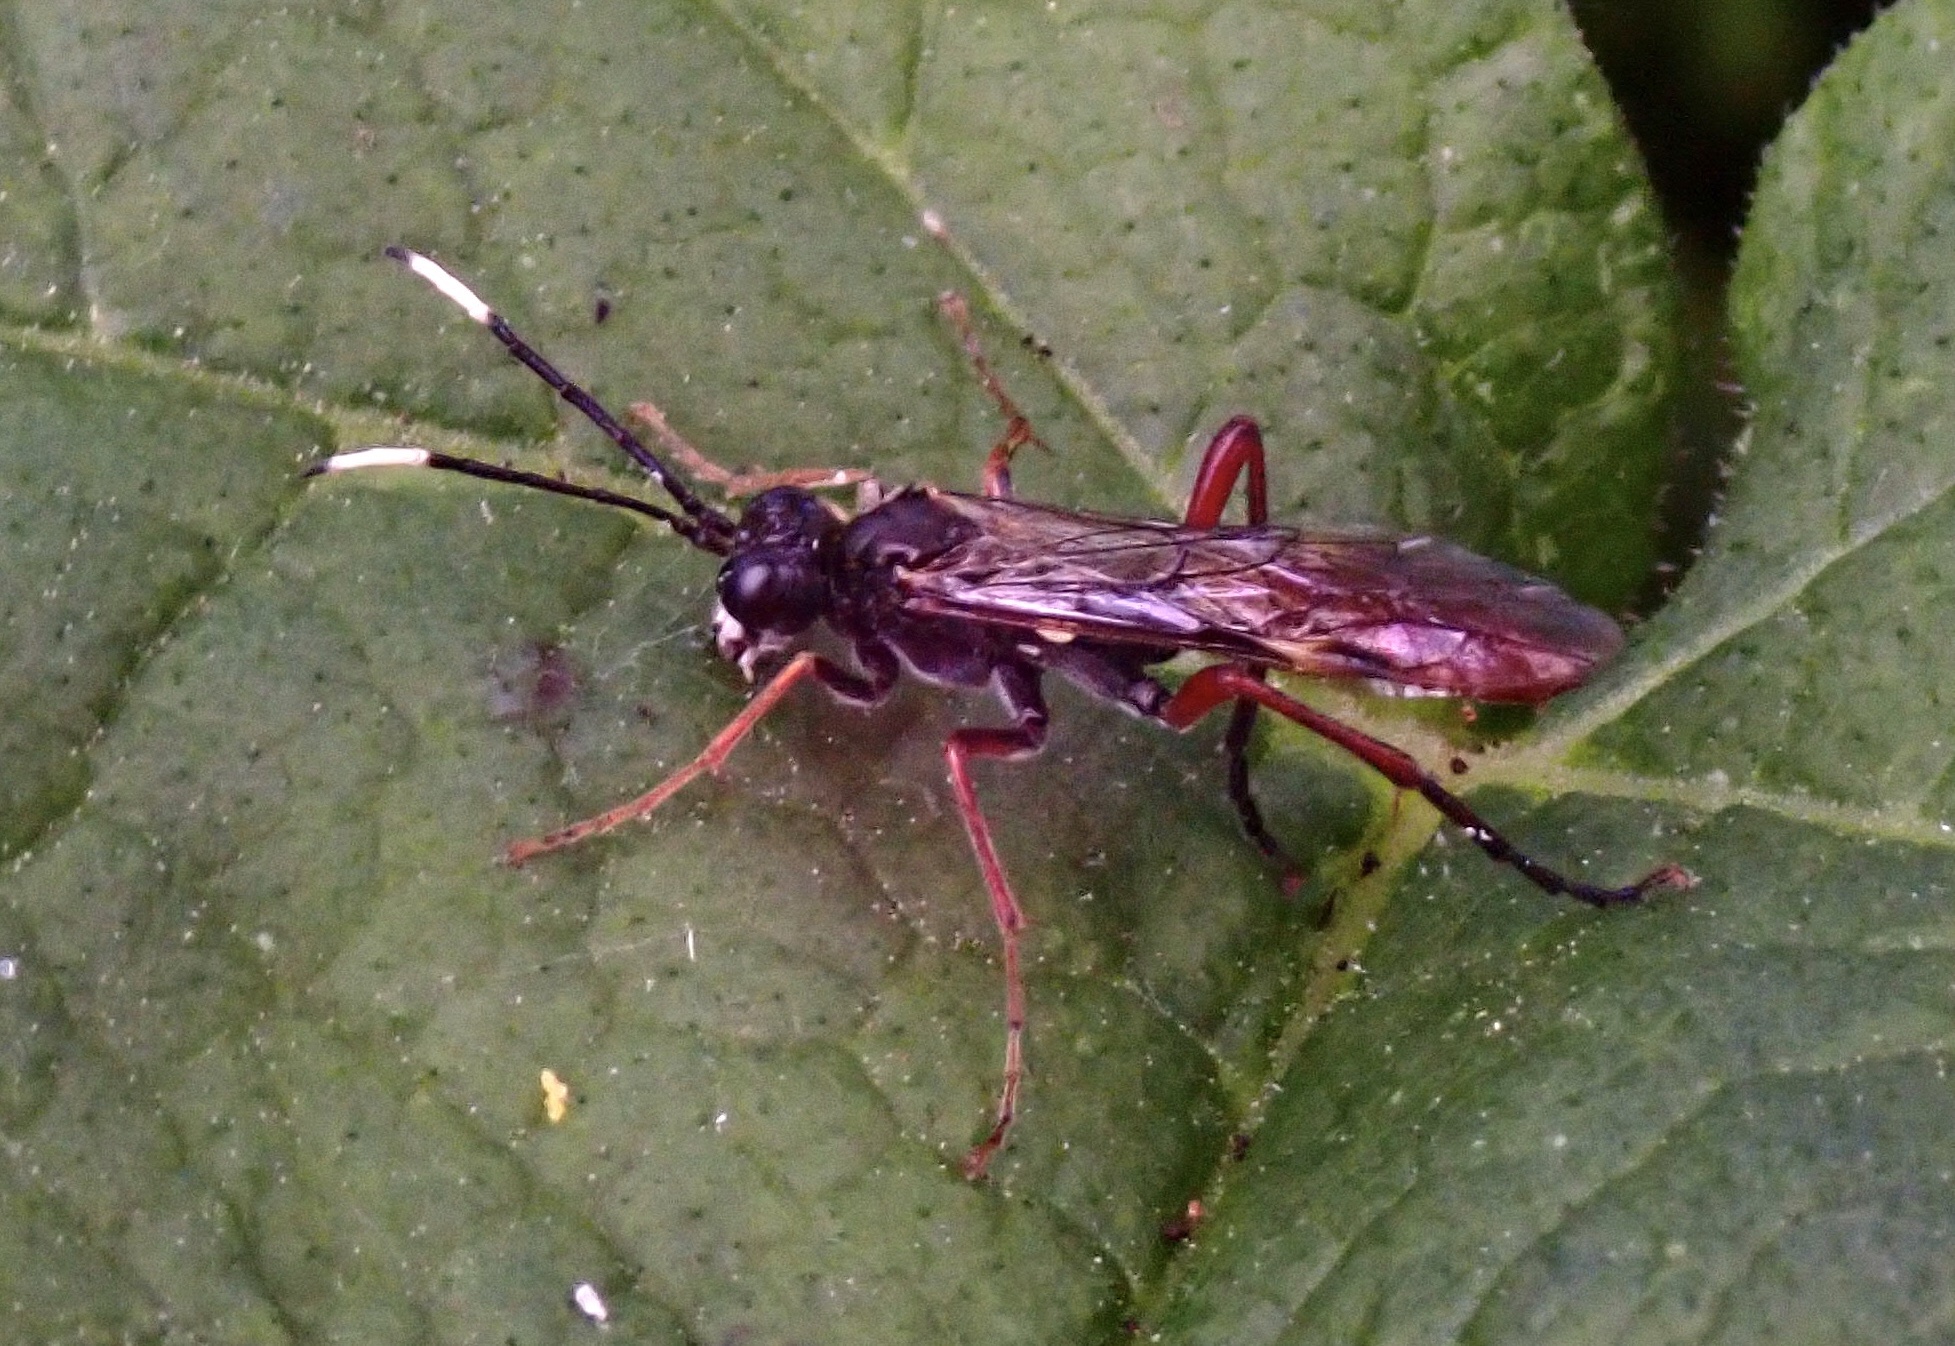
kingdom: Animalia
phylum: Arthropoda
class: Insecta
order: Hymenoptera
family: Tenthredinidae
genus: Tenthredo
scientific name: Tenthredo livida
